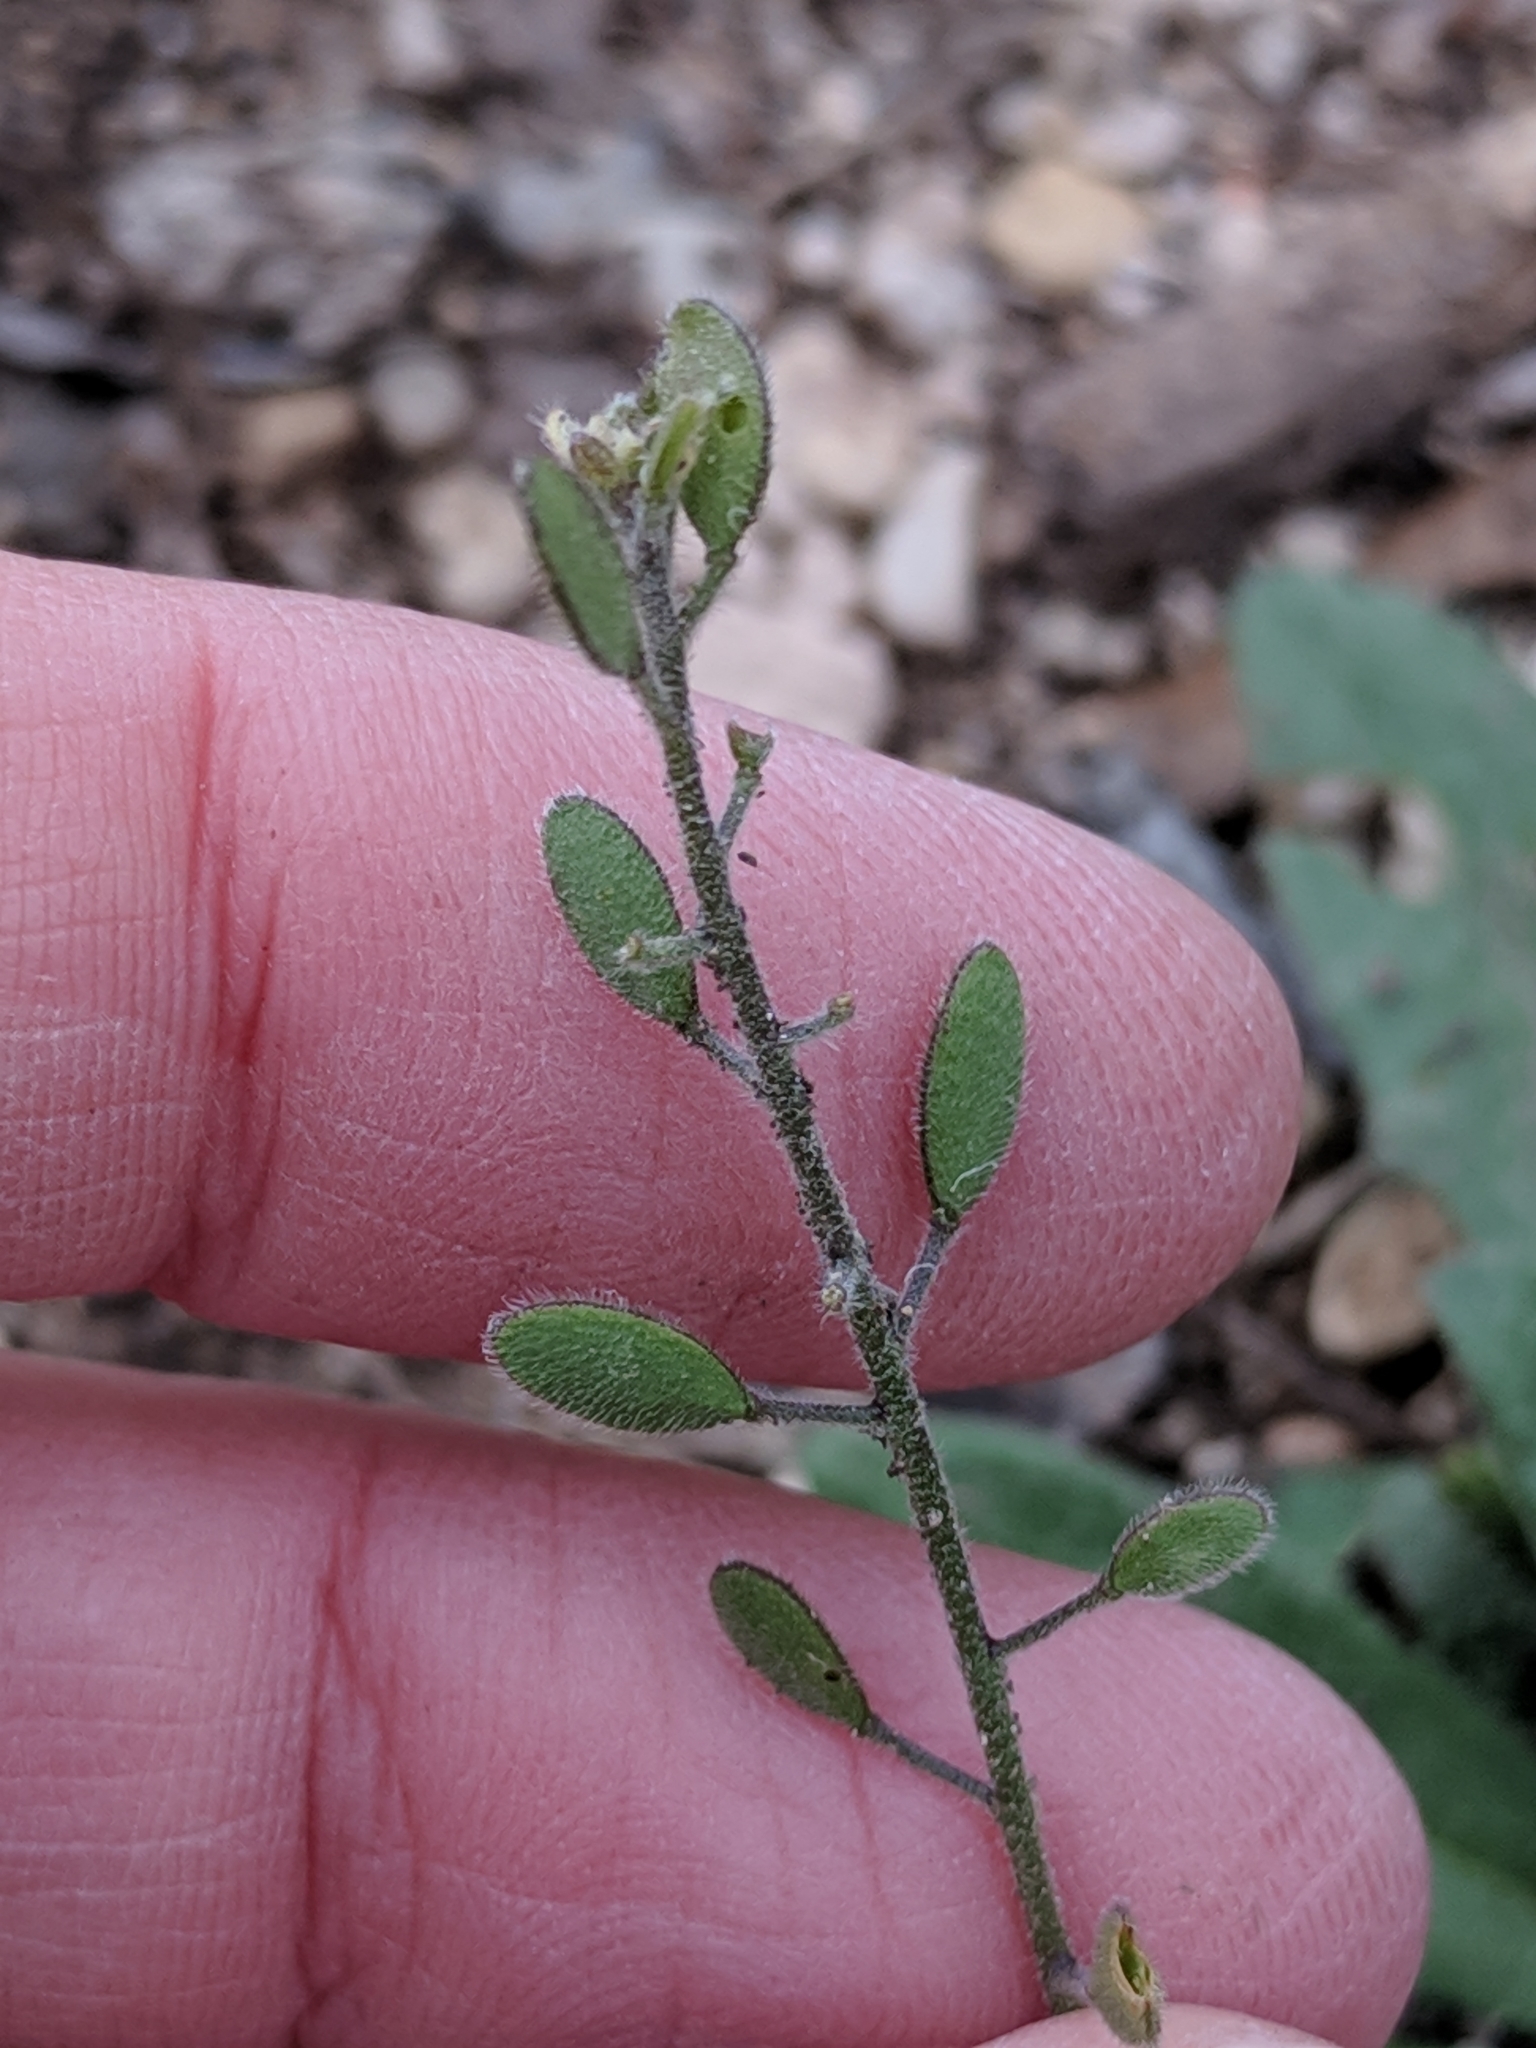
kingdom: Plantae
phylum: Tracheophyta
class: Magnoliopsida
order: Brassicales
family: Brassicaceae
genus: Tomostima
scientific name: Tomostima platycarpa
